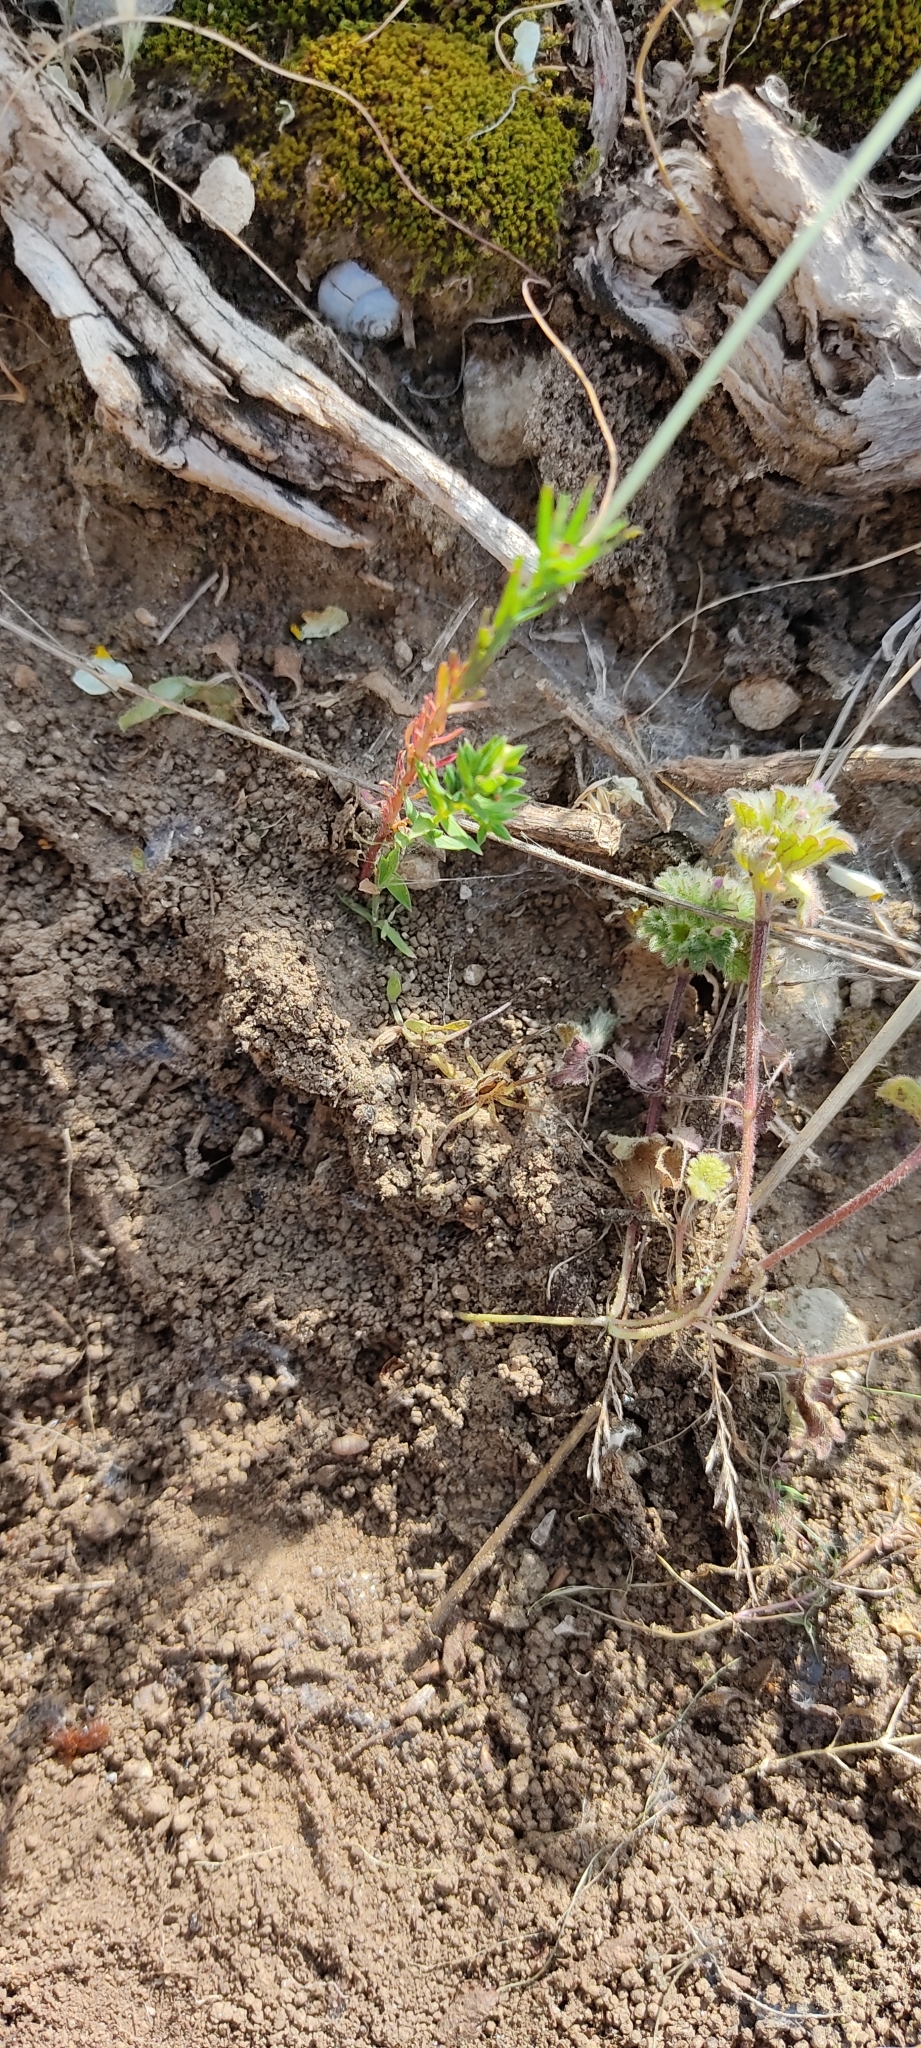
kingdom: Animalia
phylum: Arthropoda
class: Arachnida
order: Araneae
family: Lycosidae
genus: Hogna
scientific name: Hogna radiata
